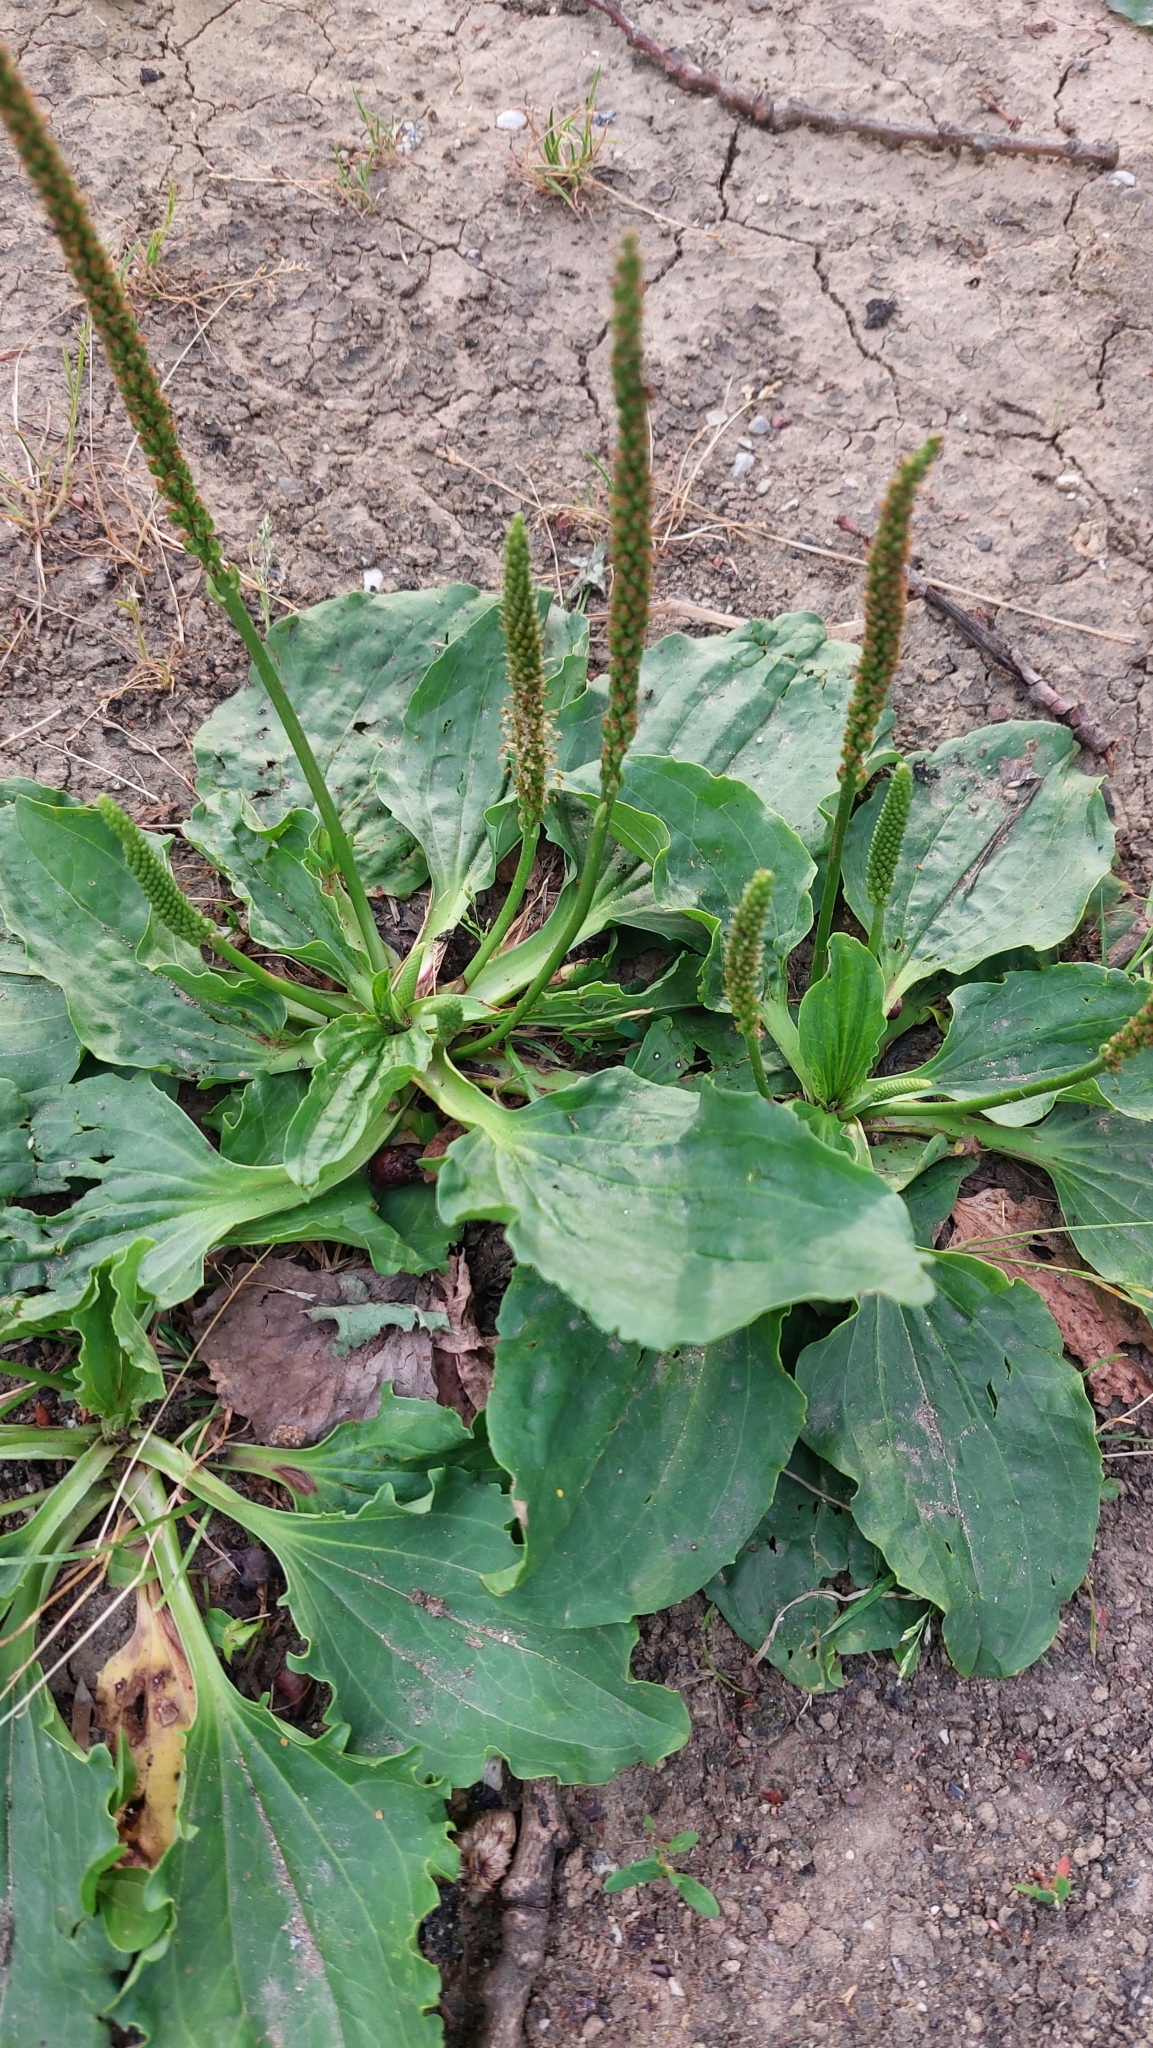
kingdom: Plantae
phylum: Tracheophyta
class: Magnoliopsida
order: Lamiales
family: Plantaginaceae
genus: Plantago
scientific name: Plantago major
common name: Common plantain
